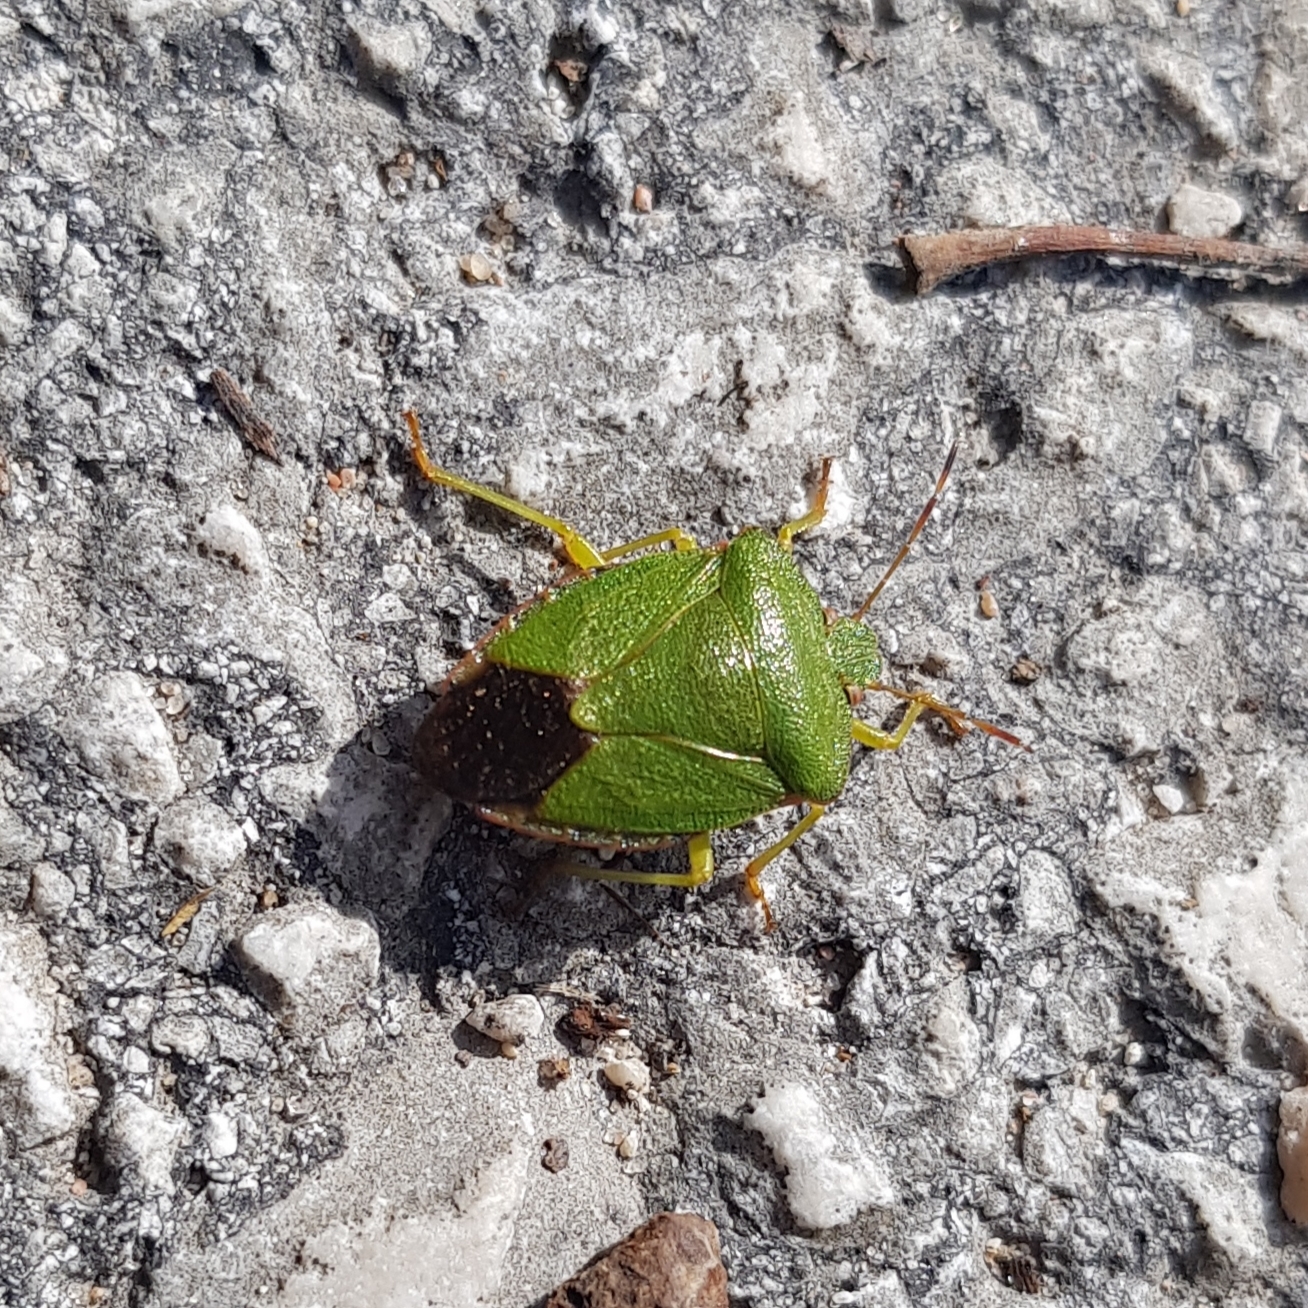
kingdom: Animalia
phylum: Arthropoda
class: Insecta
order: Hemiptera
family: Pentatomidae
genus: Palomena
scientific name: Palomena prasina
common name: Green shieldbug
